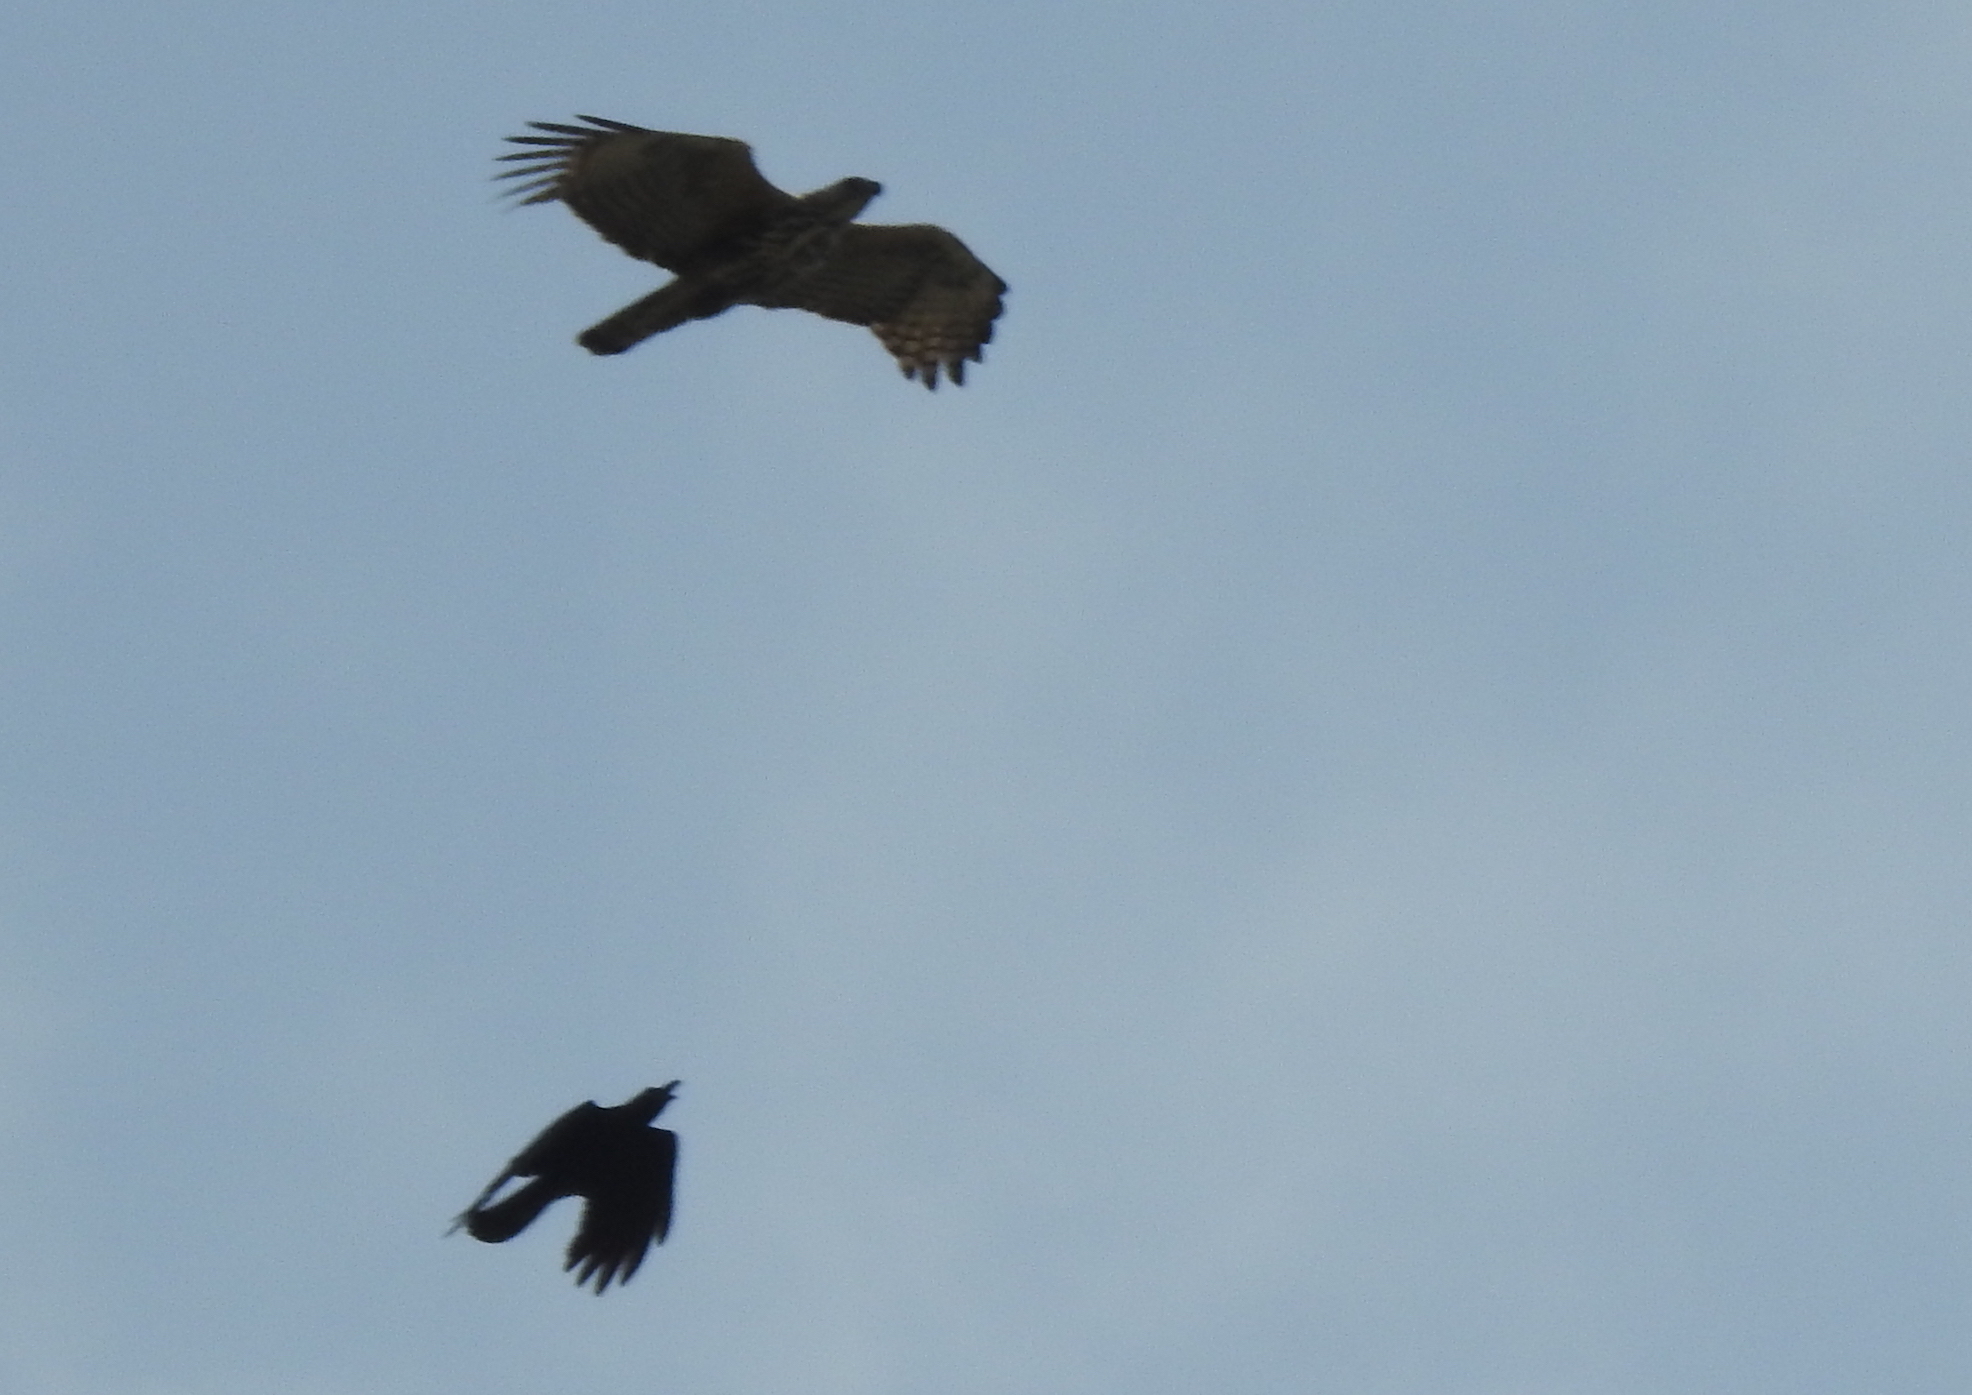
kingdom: Animalia
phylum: Chordata
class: Aves
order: Accipitriformes
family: Accipitridae
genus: Nisaetus
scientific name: Nisaetus cirrhatus
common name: Changeable hawk-eagle
